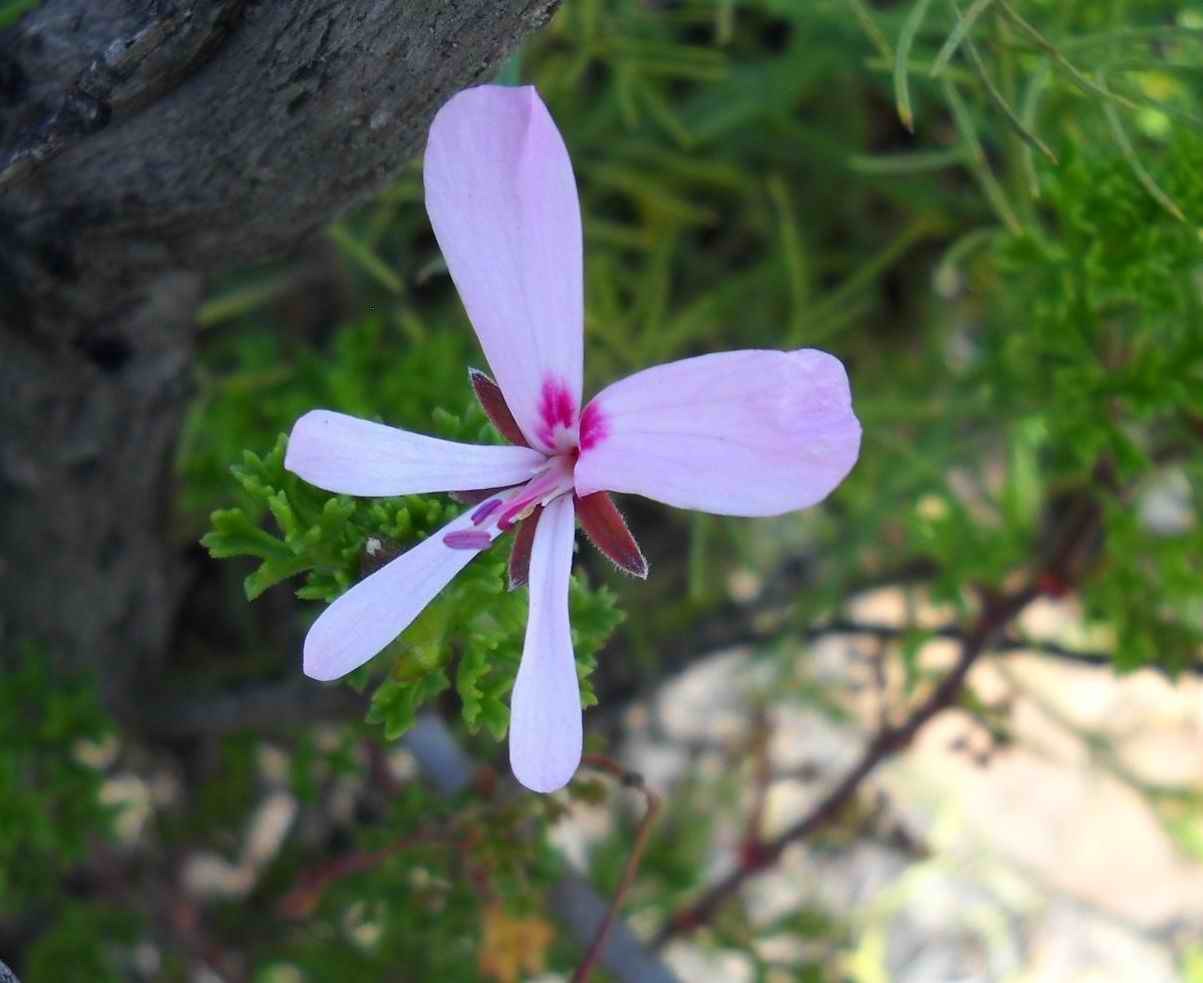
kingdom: Plantae
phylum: Tracheophyta
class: Magnoliopsida
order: Geraniales
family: Geraniaceae
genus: Pelargonium
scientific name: Pelargonium ternatum
